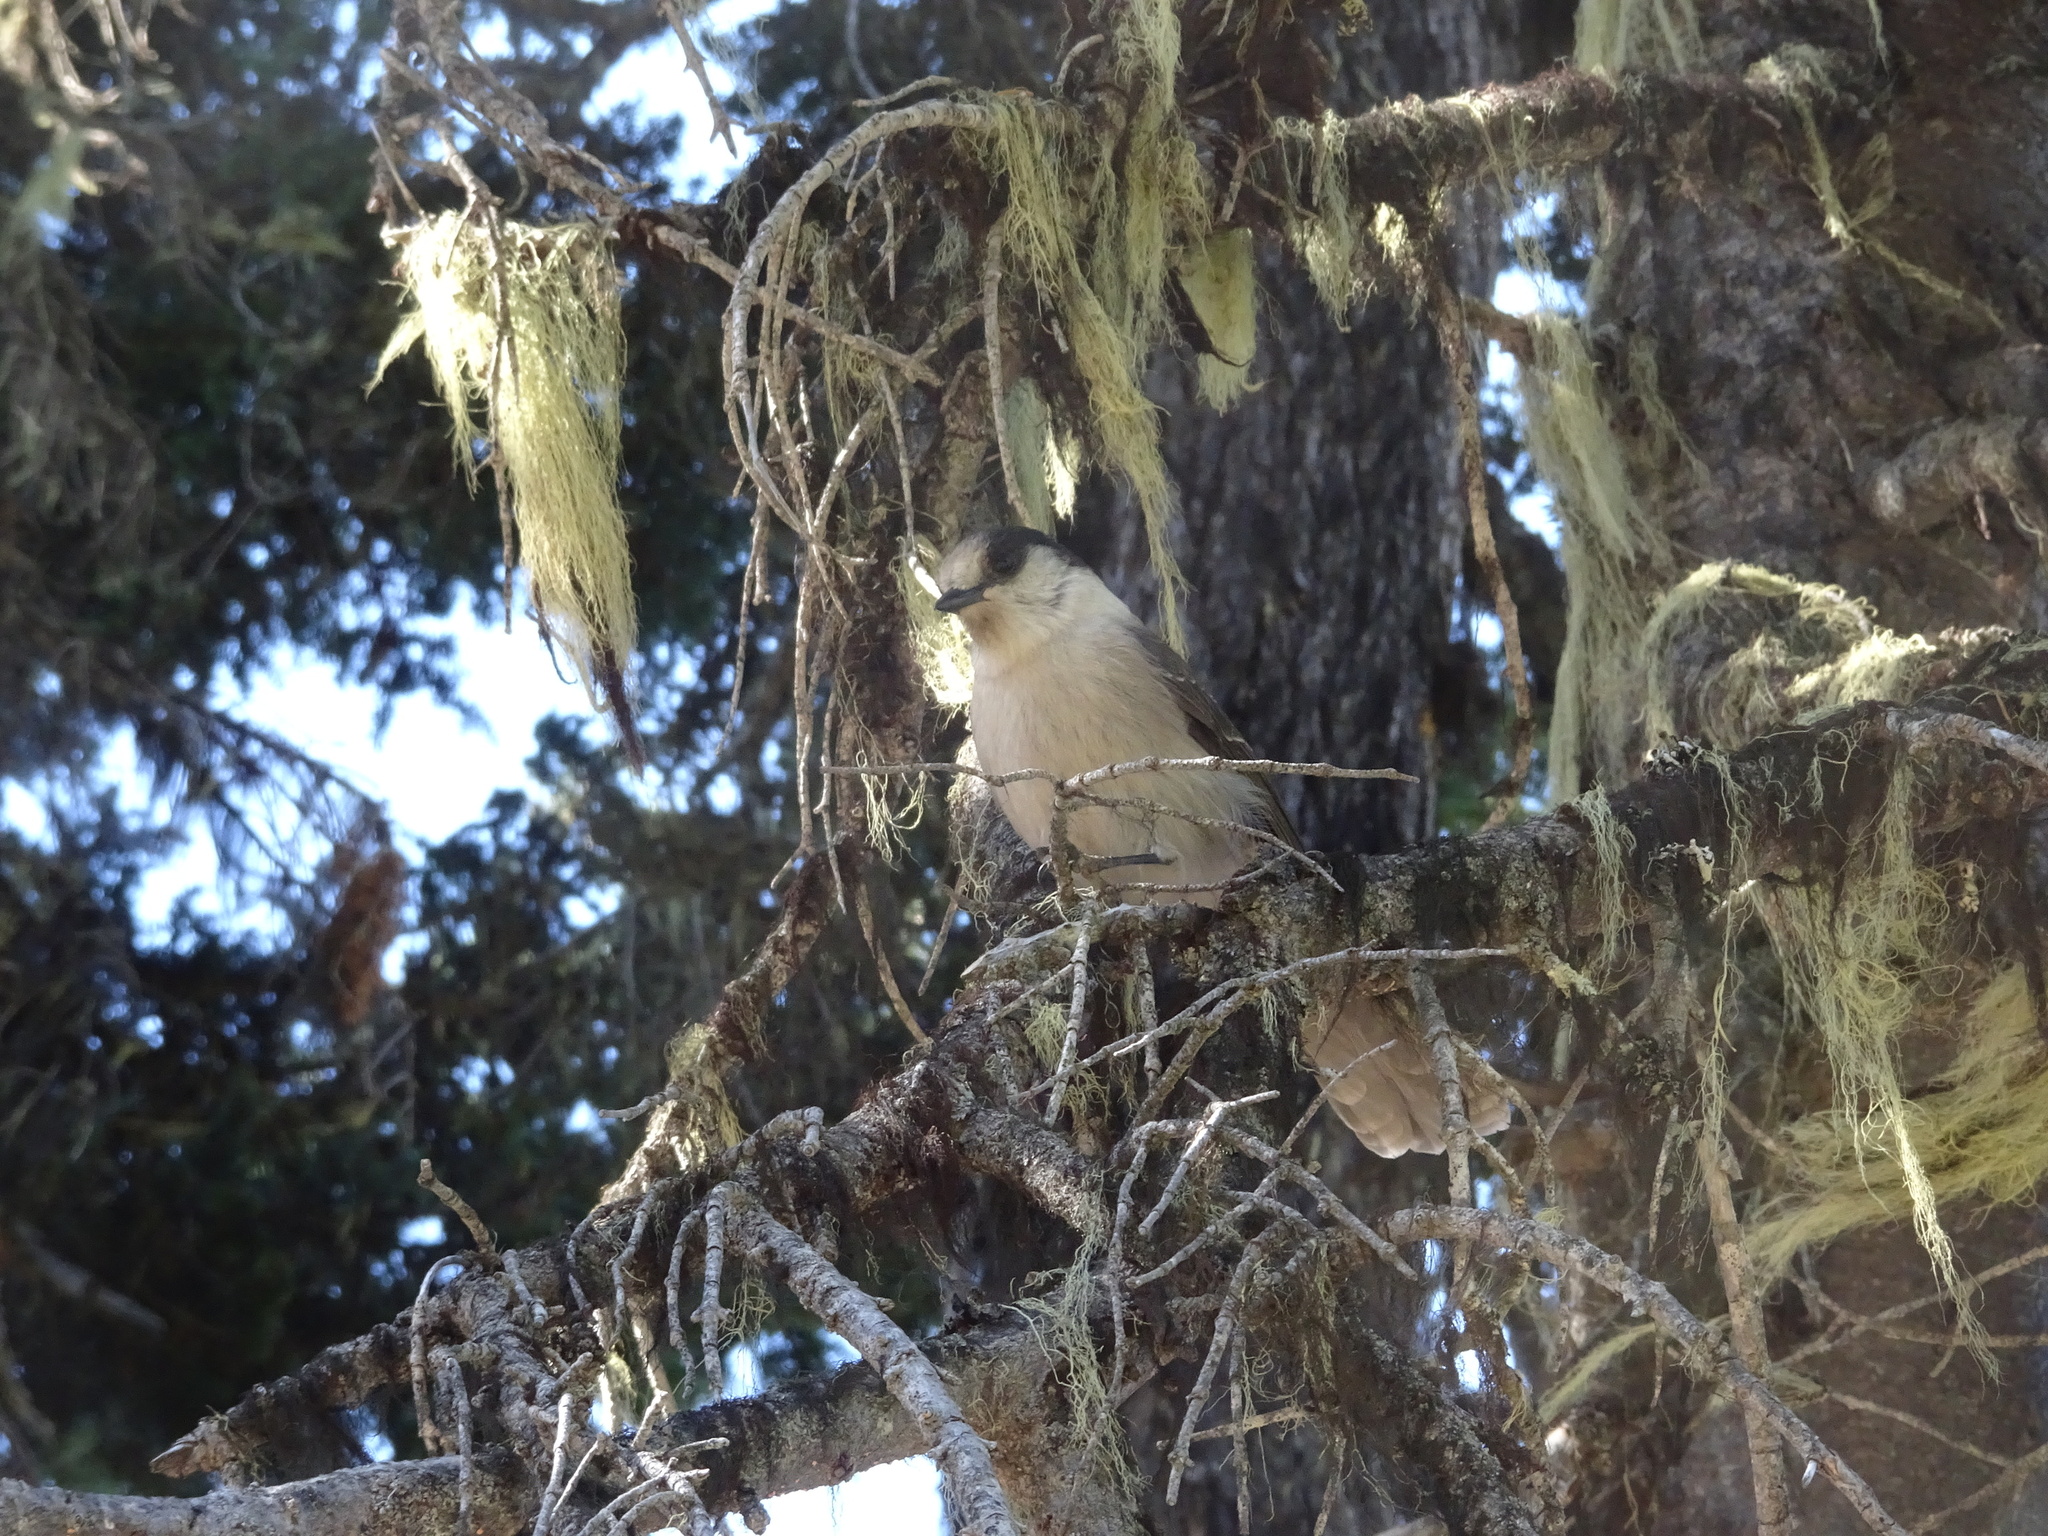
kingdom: Animalia
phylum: Chordata
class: Aves
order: Passeriformes
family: Corvidae
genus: Perisoreus
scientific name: Perisoreus canadensis
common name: Gray jay
